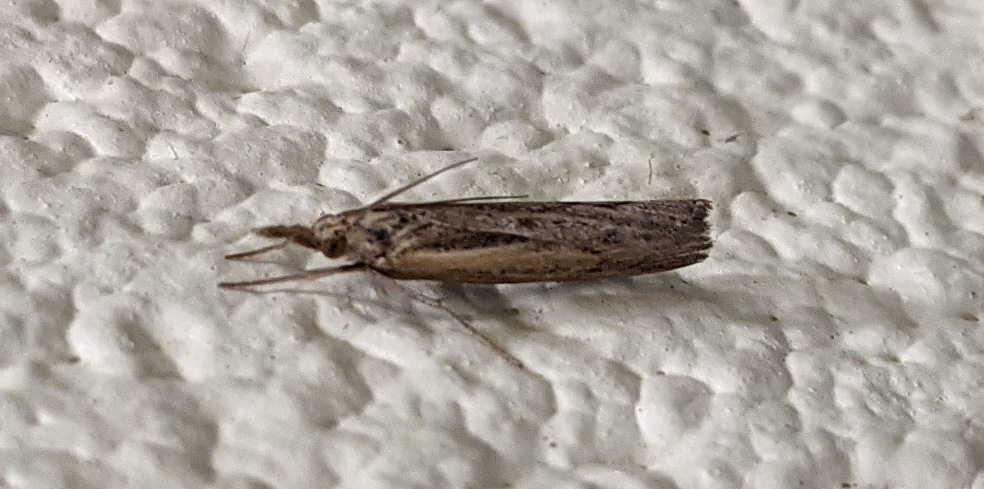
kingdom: Animalia
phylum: Arthropoda
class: Insecta
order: Lepidoptera
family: Crambidae
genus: Pediasia
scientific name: Pediasia trisecta
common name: Sod webworm moth
